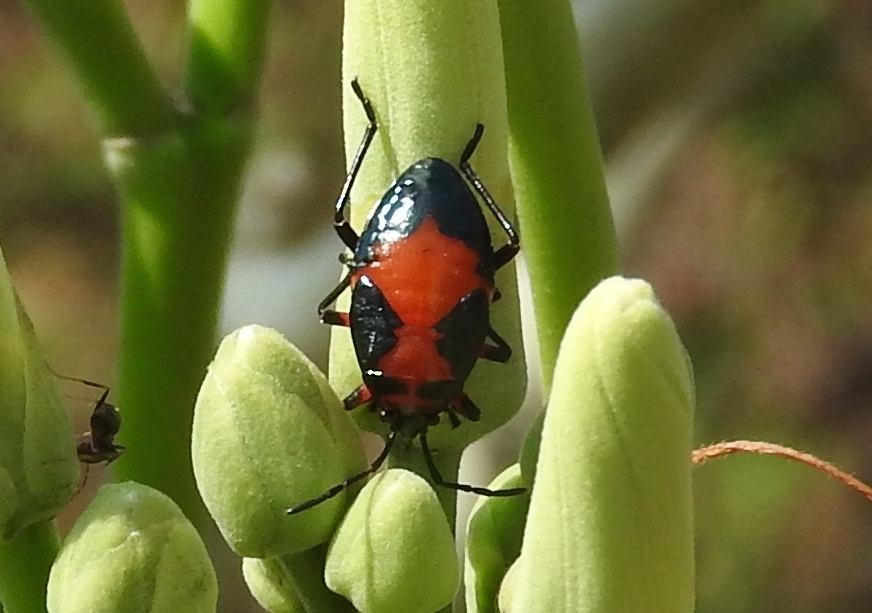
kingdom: Animalia
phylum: Arthropoda
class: Insecta
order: Hemiptera
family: Largidae
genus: Largus
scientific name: Largus
